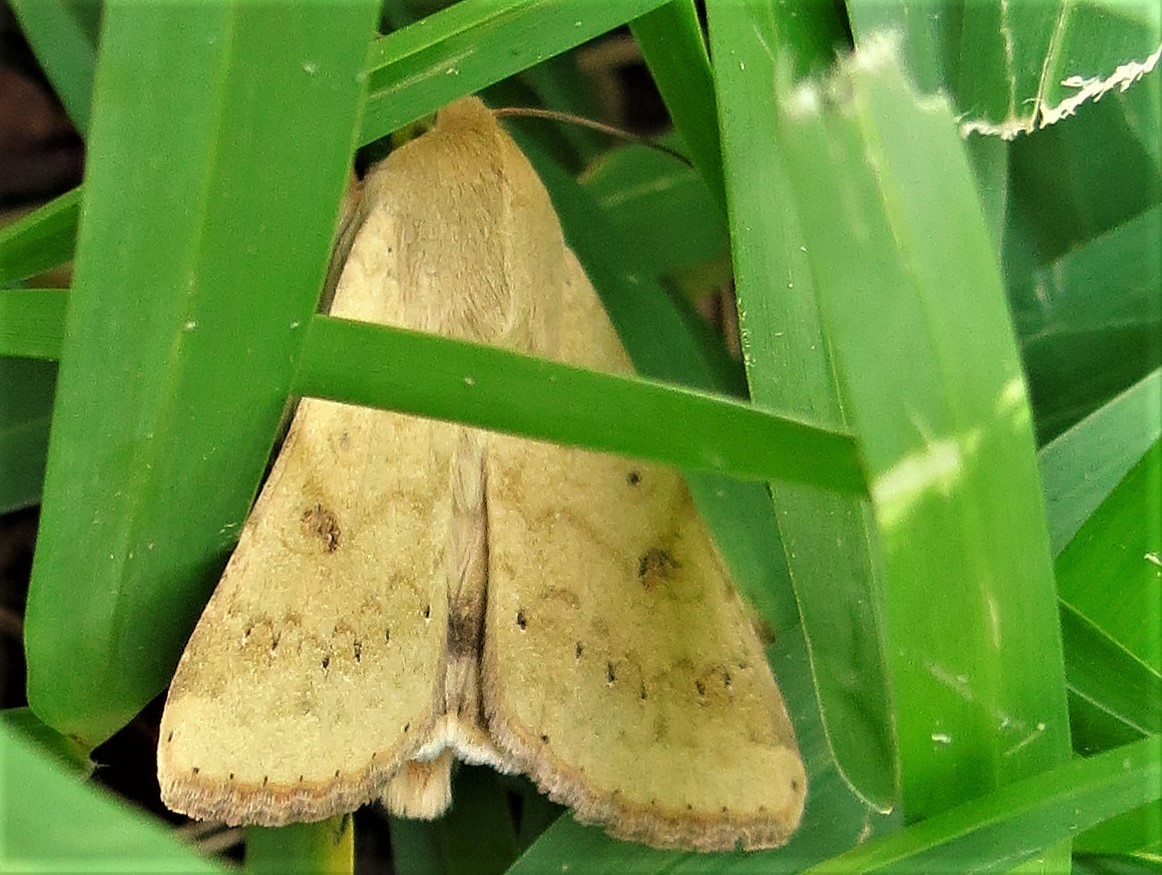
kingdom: Animalia
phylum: Arthropoda
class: Insecta
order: Lepidoptera
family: Noctuidae
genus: Helicoverpa
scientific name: Helicoverpa zea
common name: Bollworm
